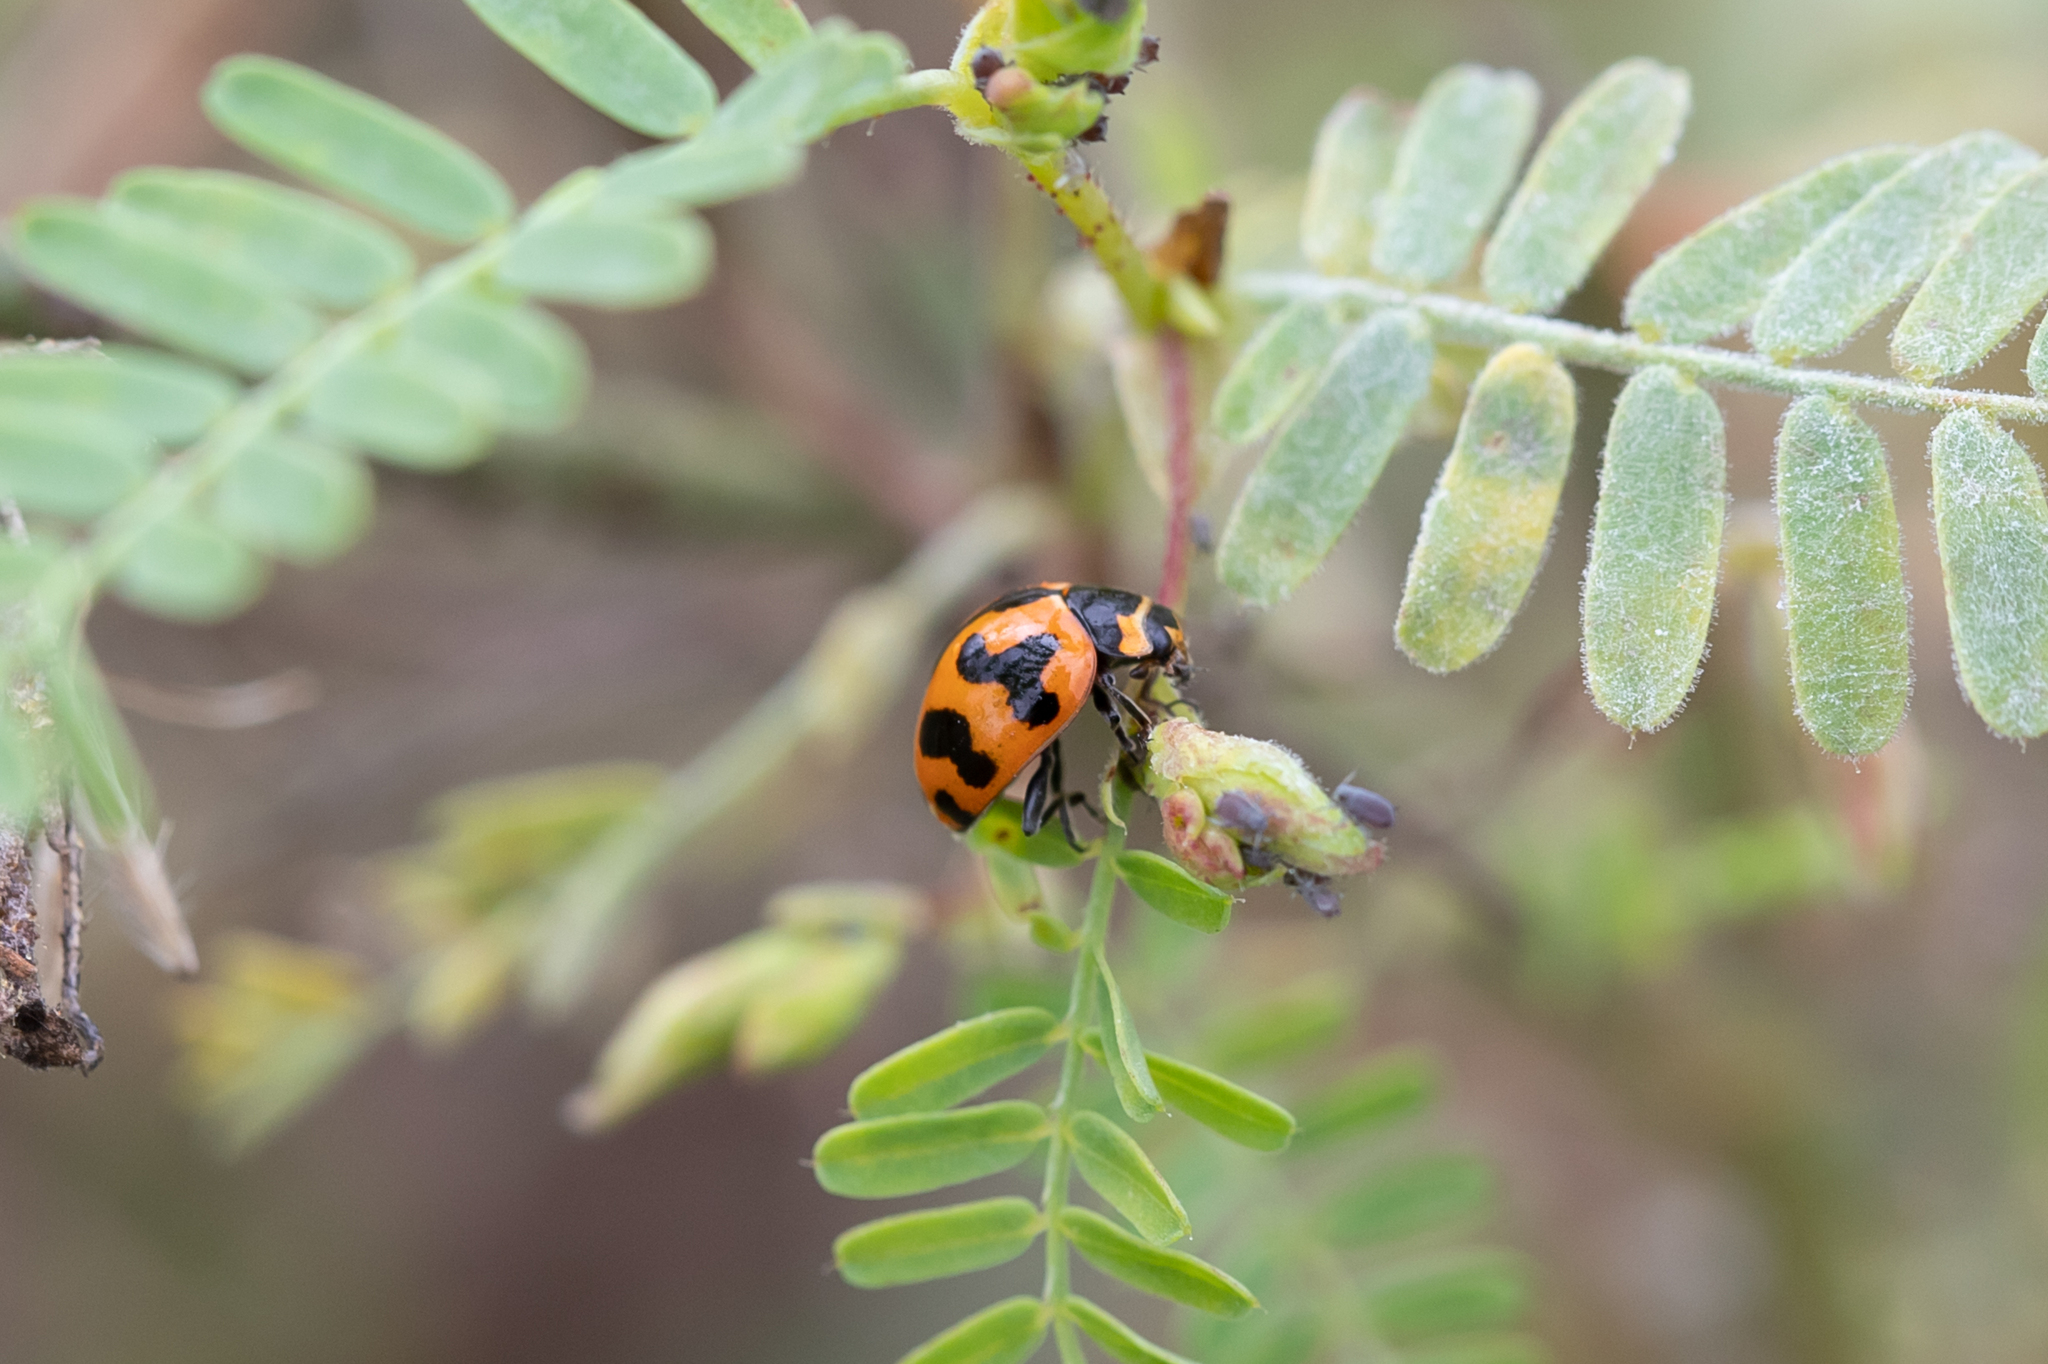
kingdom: Animalia
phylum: Arthropoda
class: Insecta
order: Coleoptera
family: Coccinellidae
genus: Coccinella
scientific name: Coccinella transversalis
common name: Transverse lady beetle
